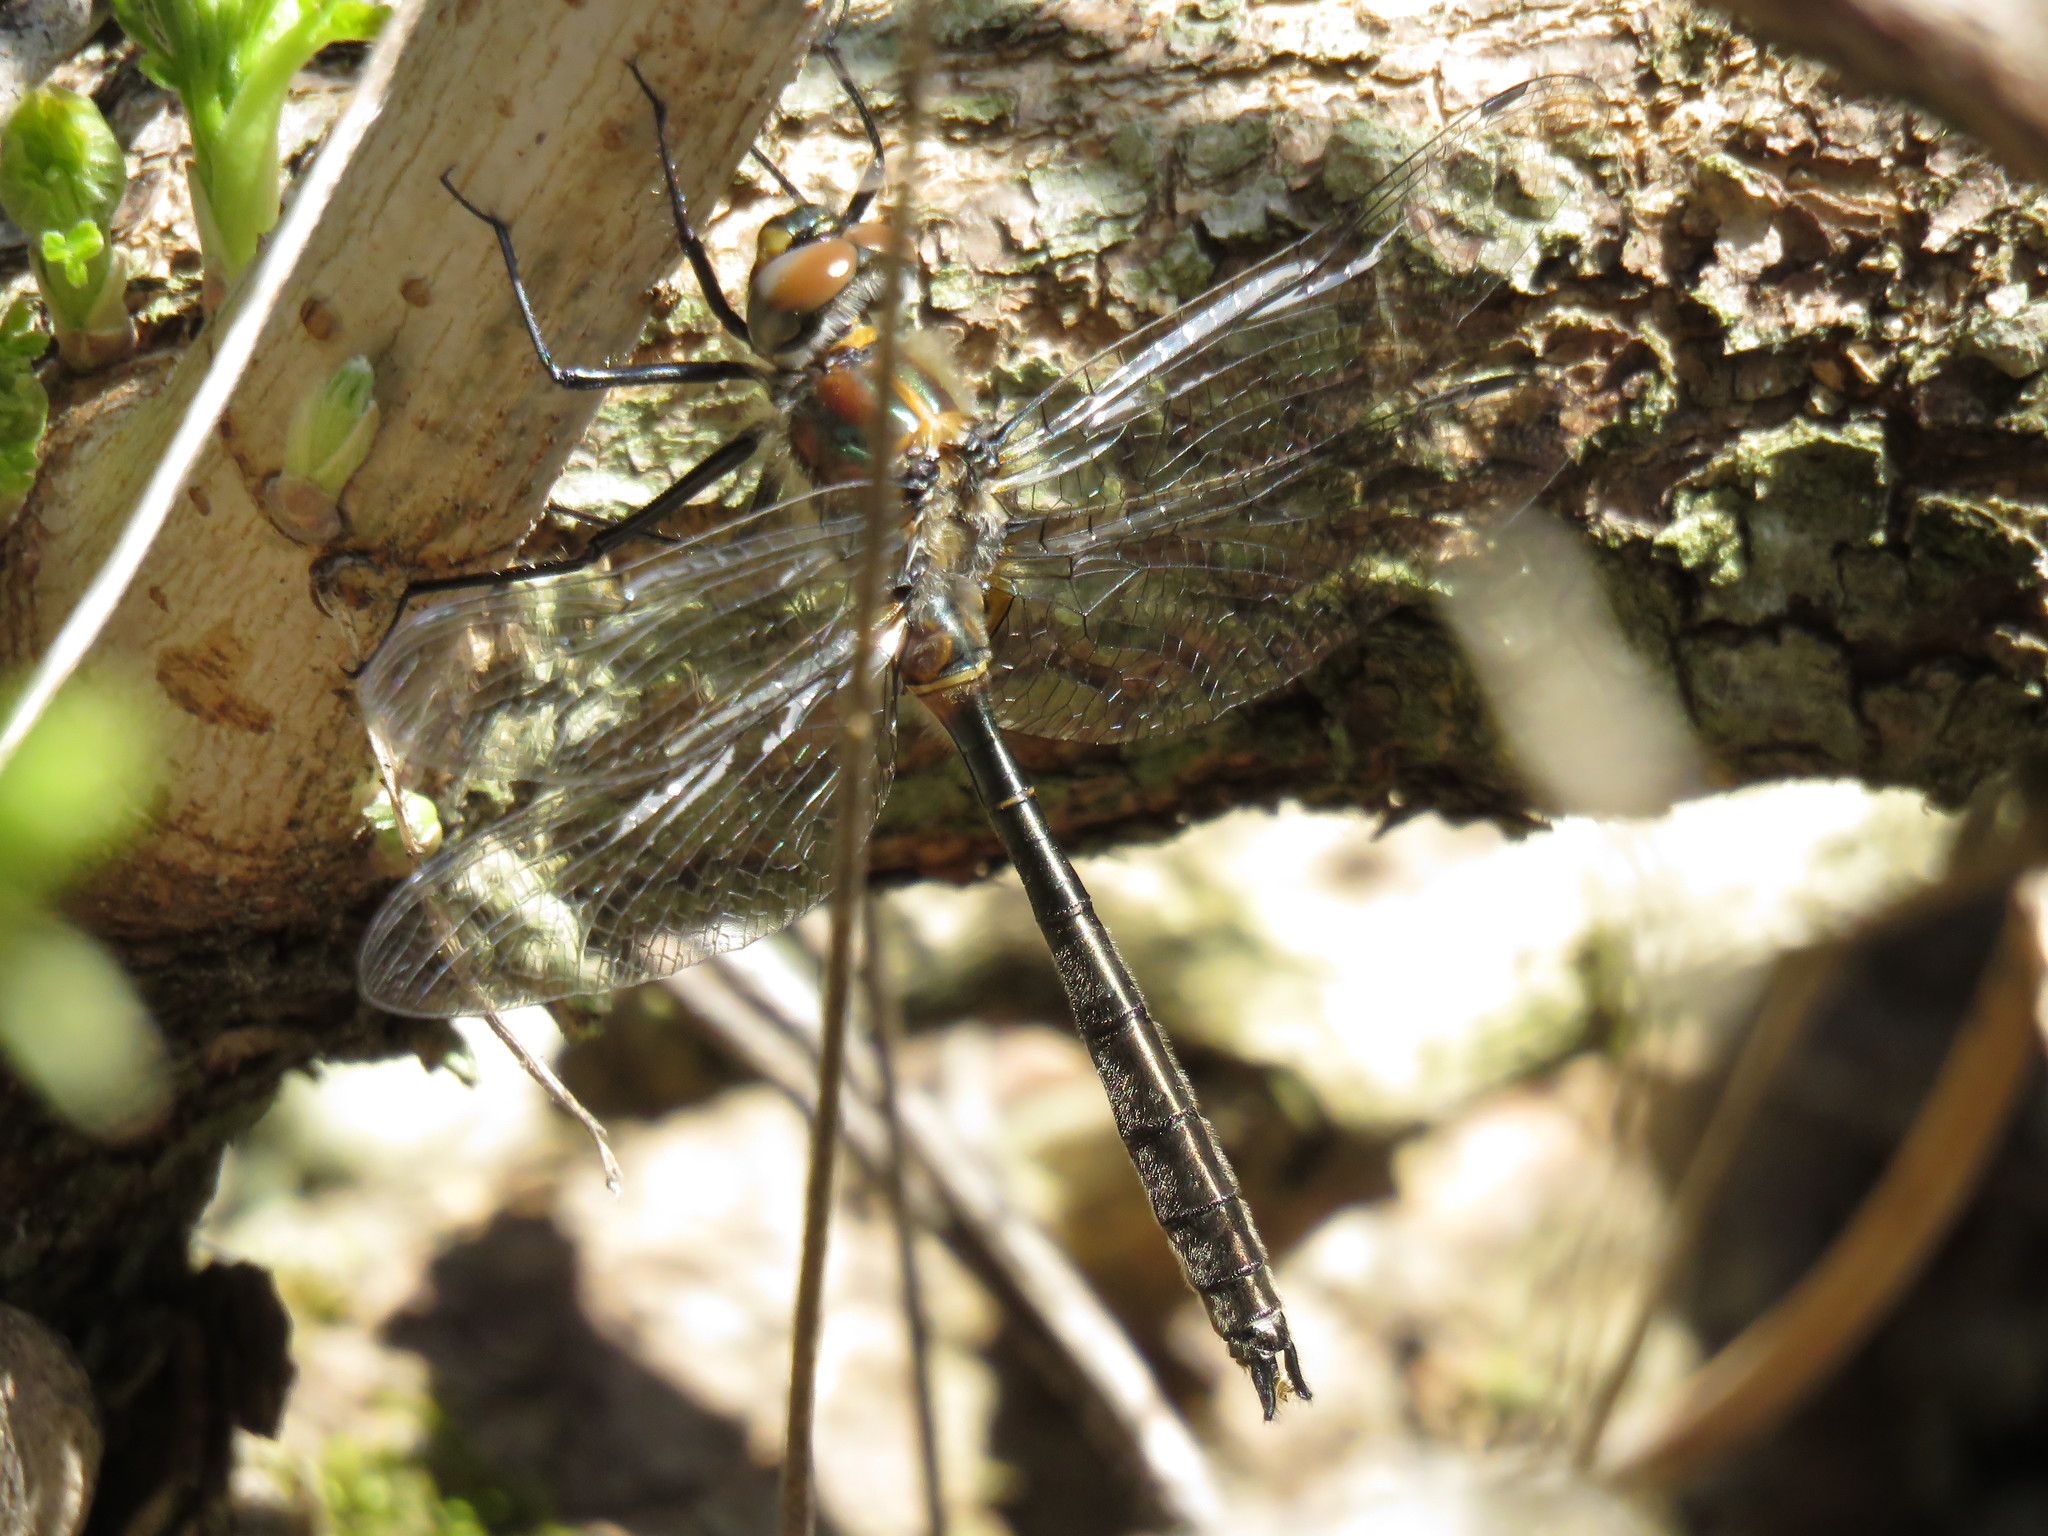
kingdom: Animalia
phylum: Arthropoda
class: Insecta
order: Odonata
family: Corduliidae
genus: Cordulia
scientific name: Cordulia shurtleffii
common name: American emerald
